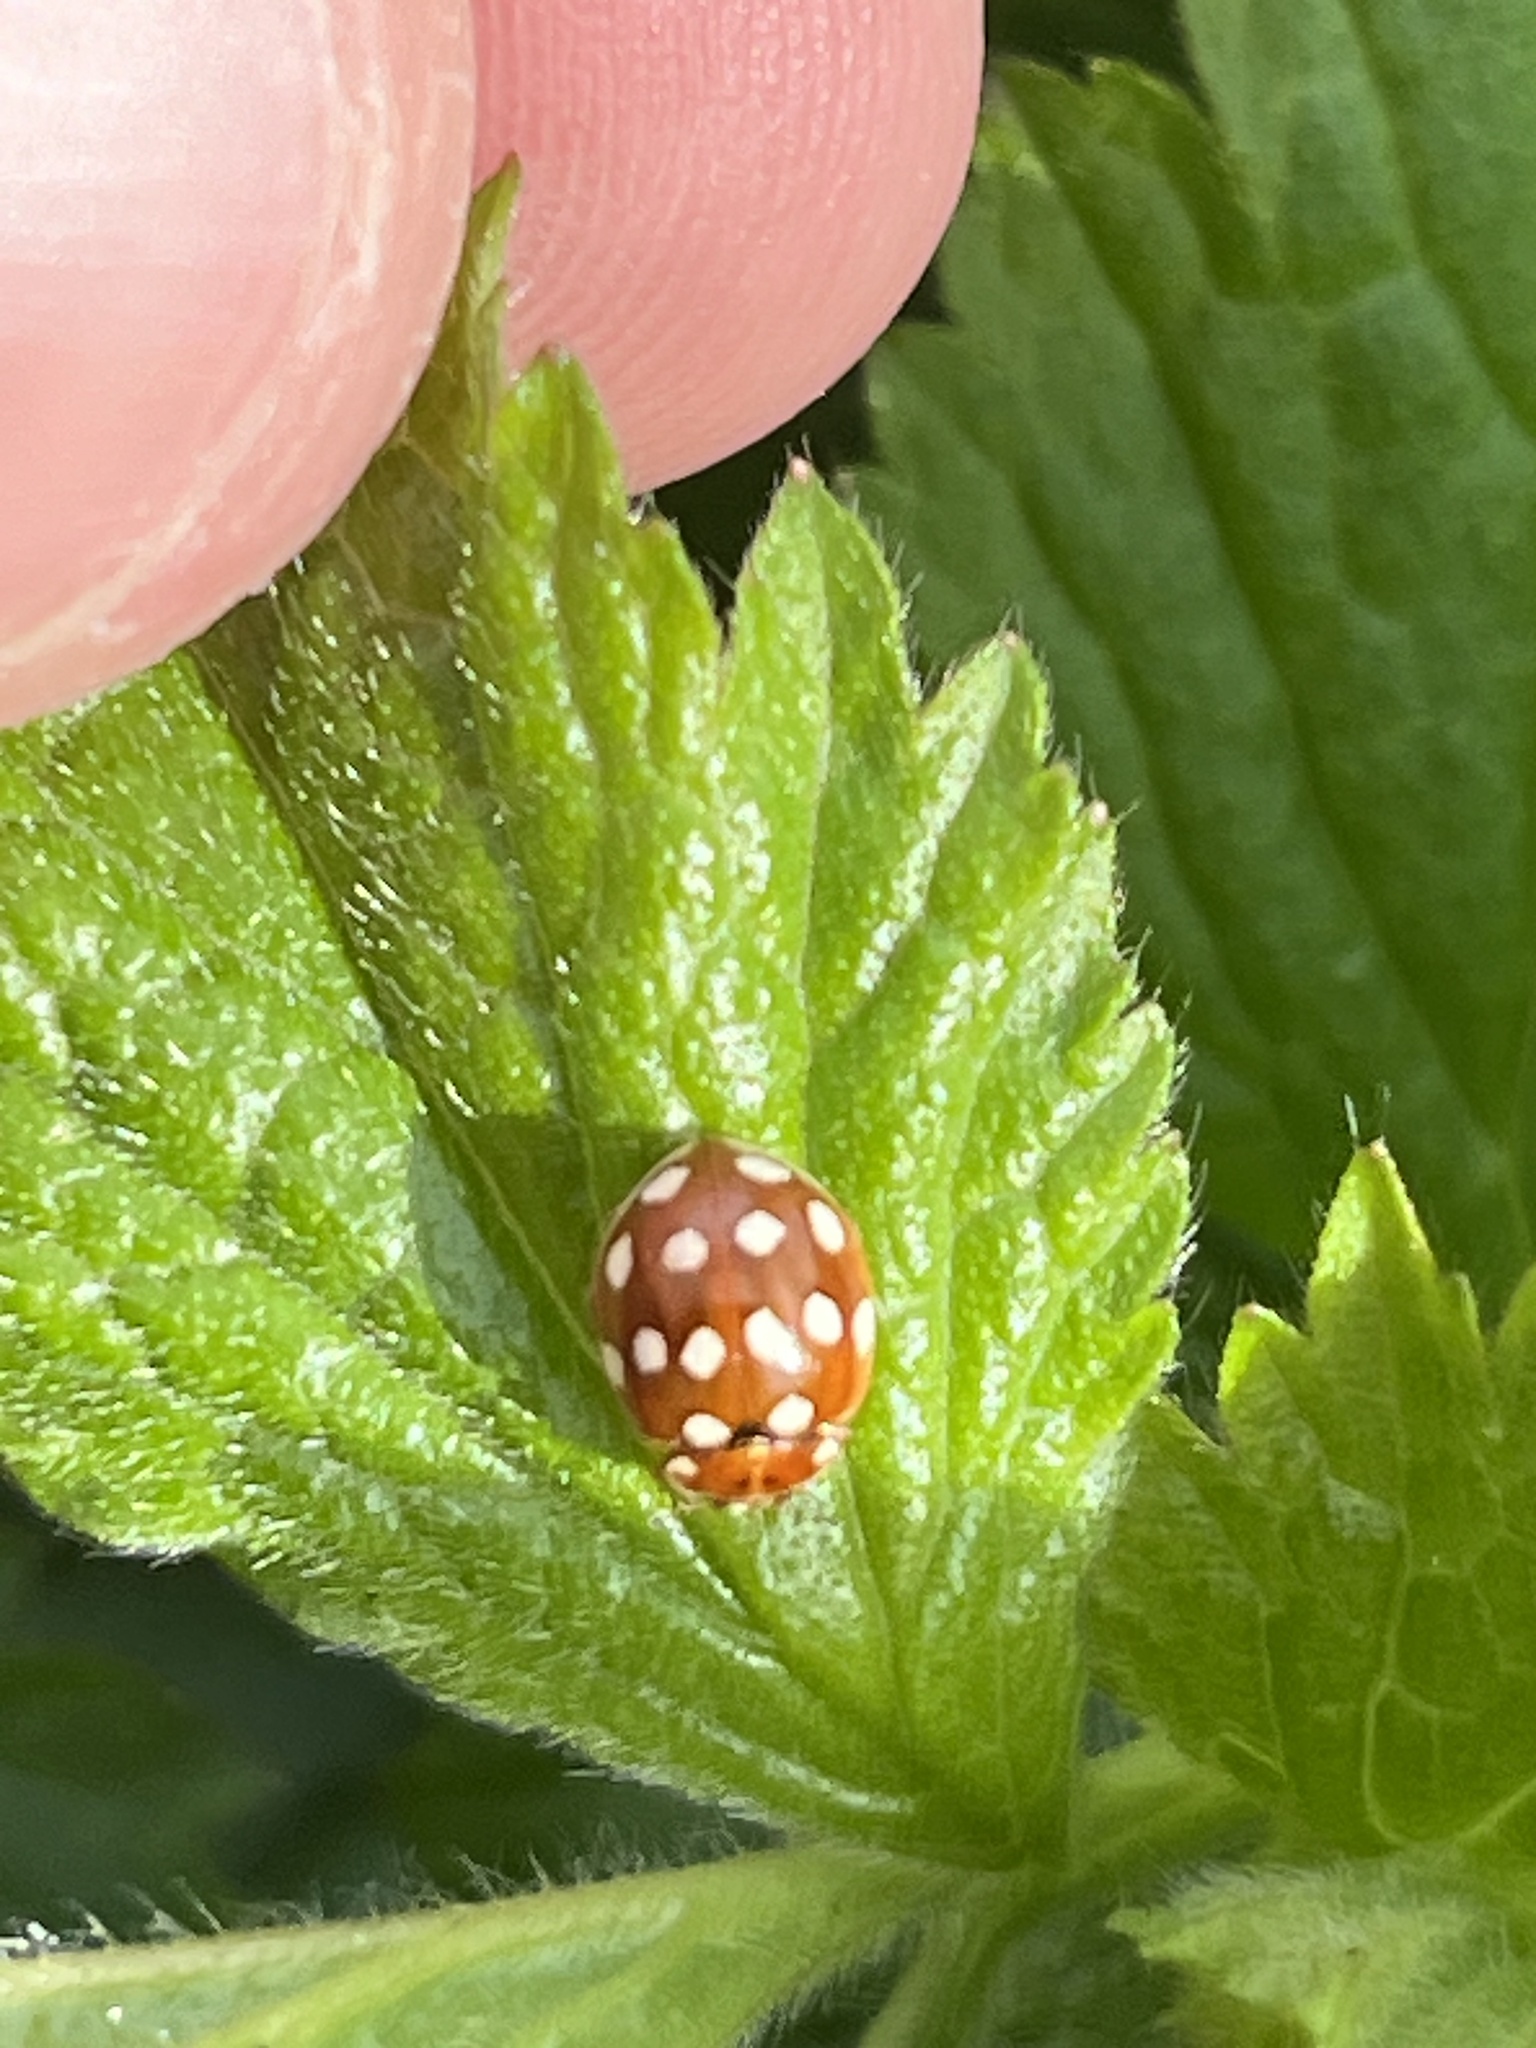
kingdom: Animalia
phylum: Arthropoda
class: Insecta
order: Coleoptera
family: Coccinellidae
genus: Calvia
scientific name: Calvia quatuordecimguttata
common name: Cream-spot ladybird
